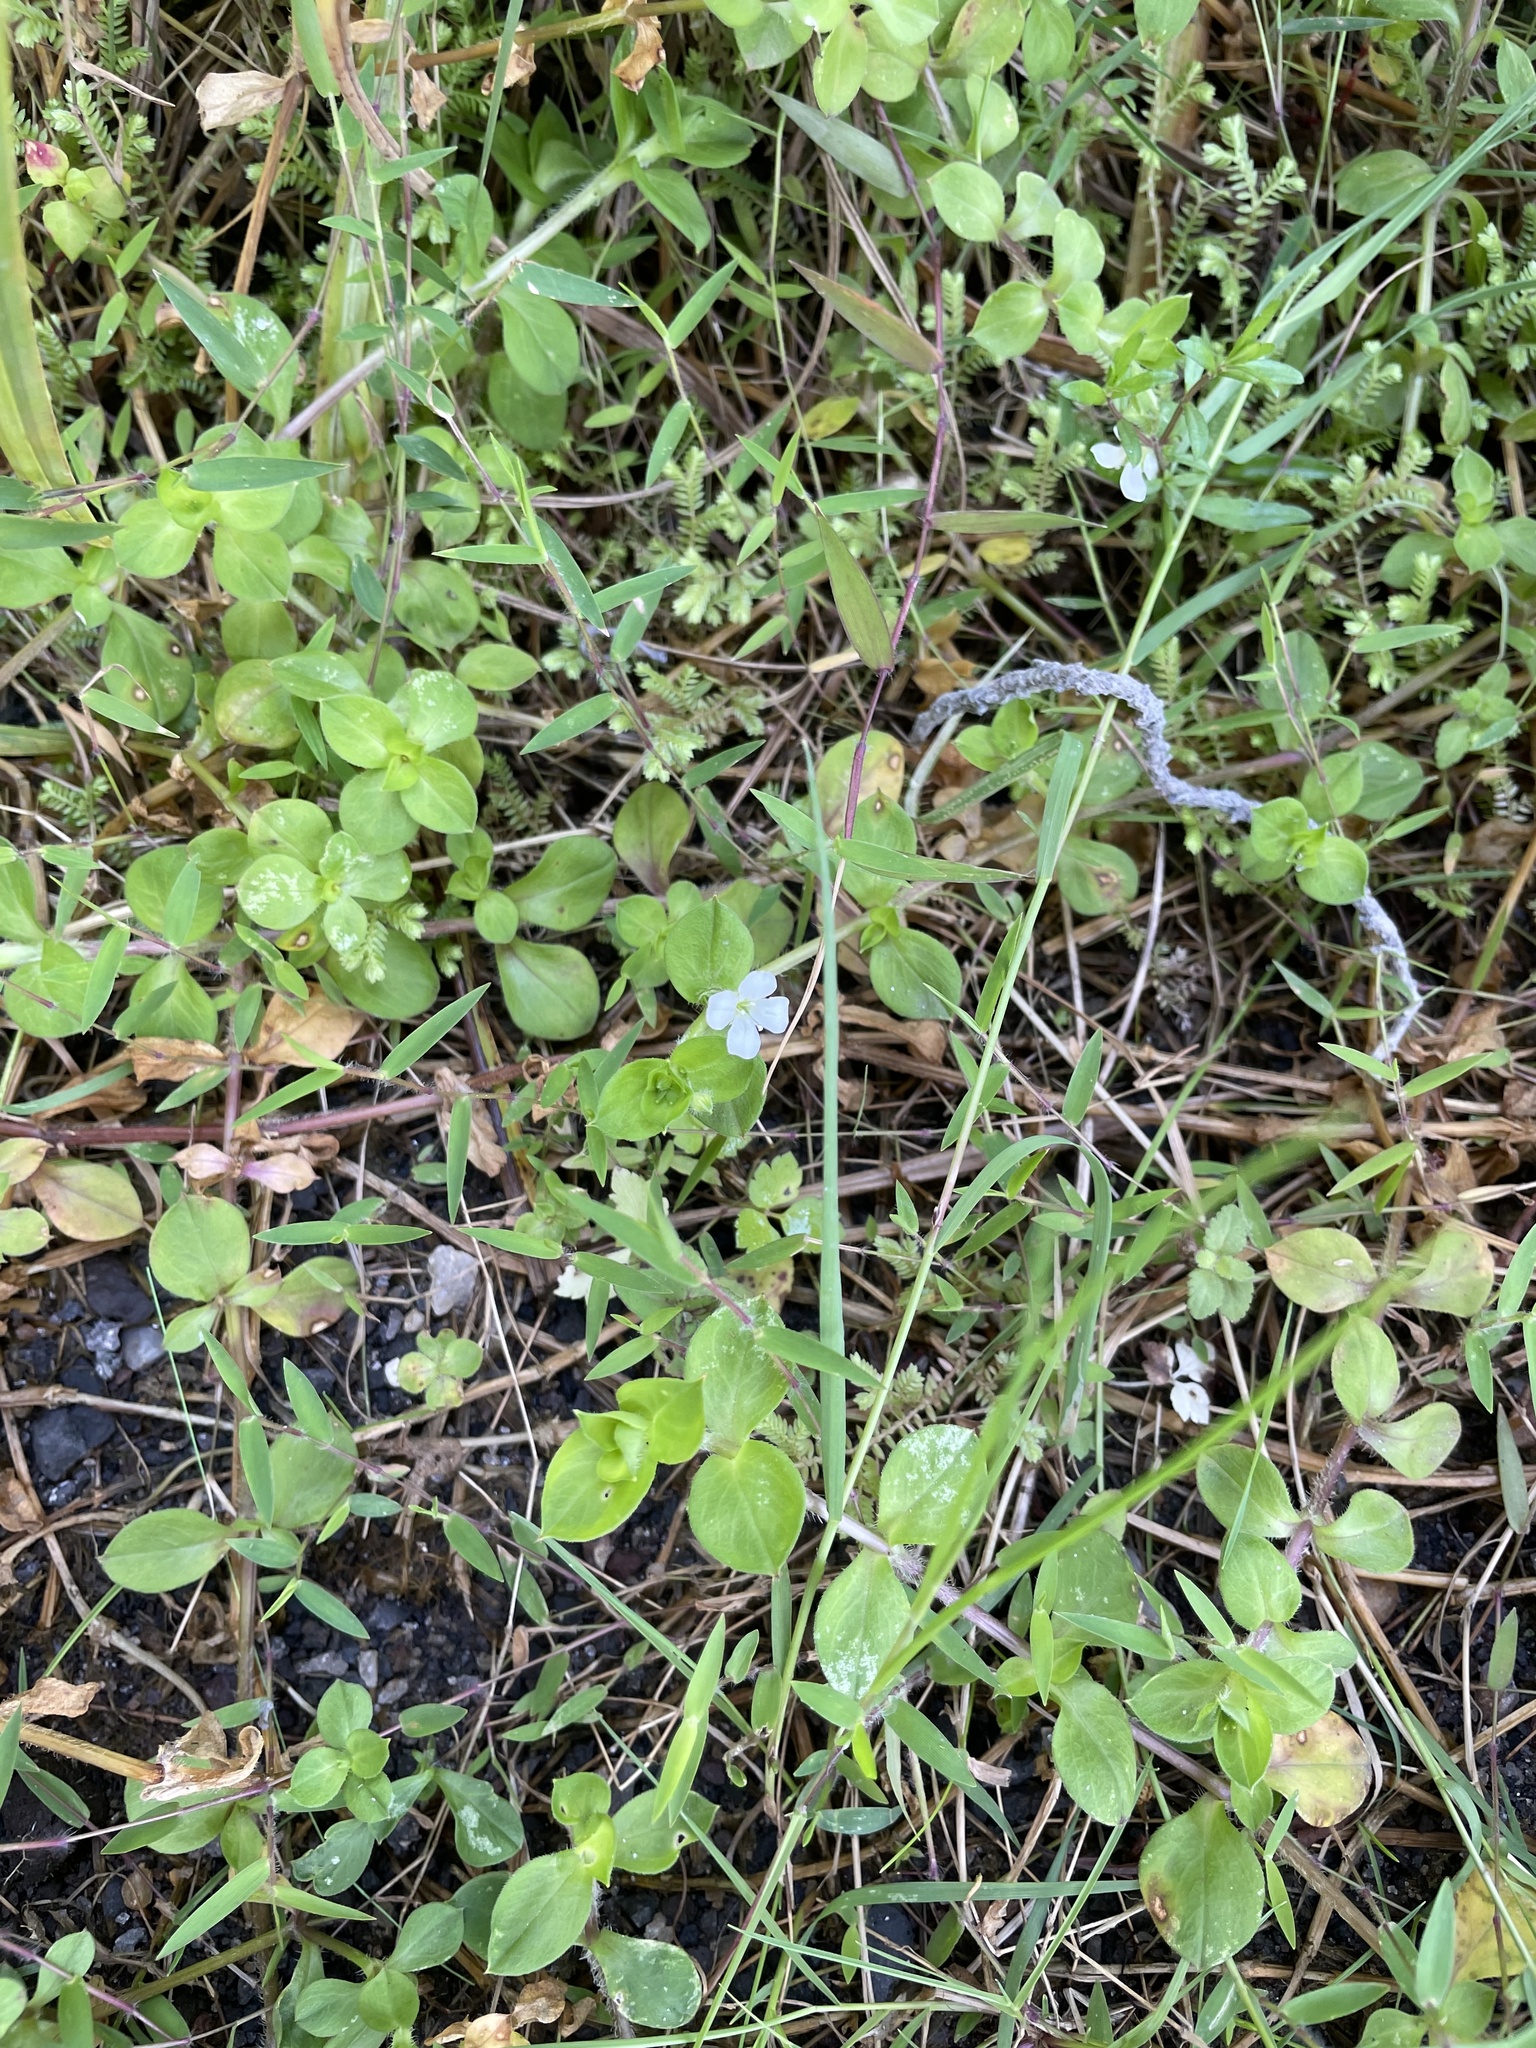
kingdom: Plantae
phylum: Tracheophyta
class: Magnoliopsida
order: Caryophyllales
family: Caryophyllaceae
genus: Silene
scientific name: Silene kiwuensis
